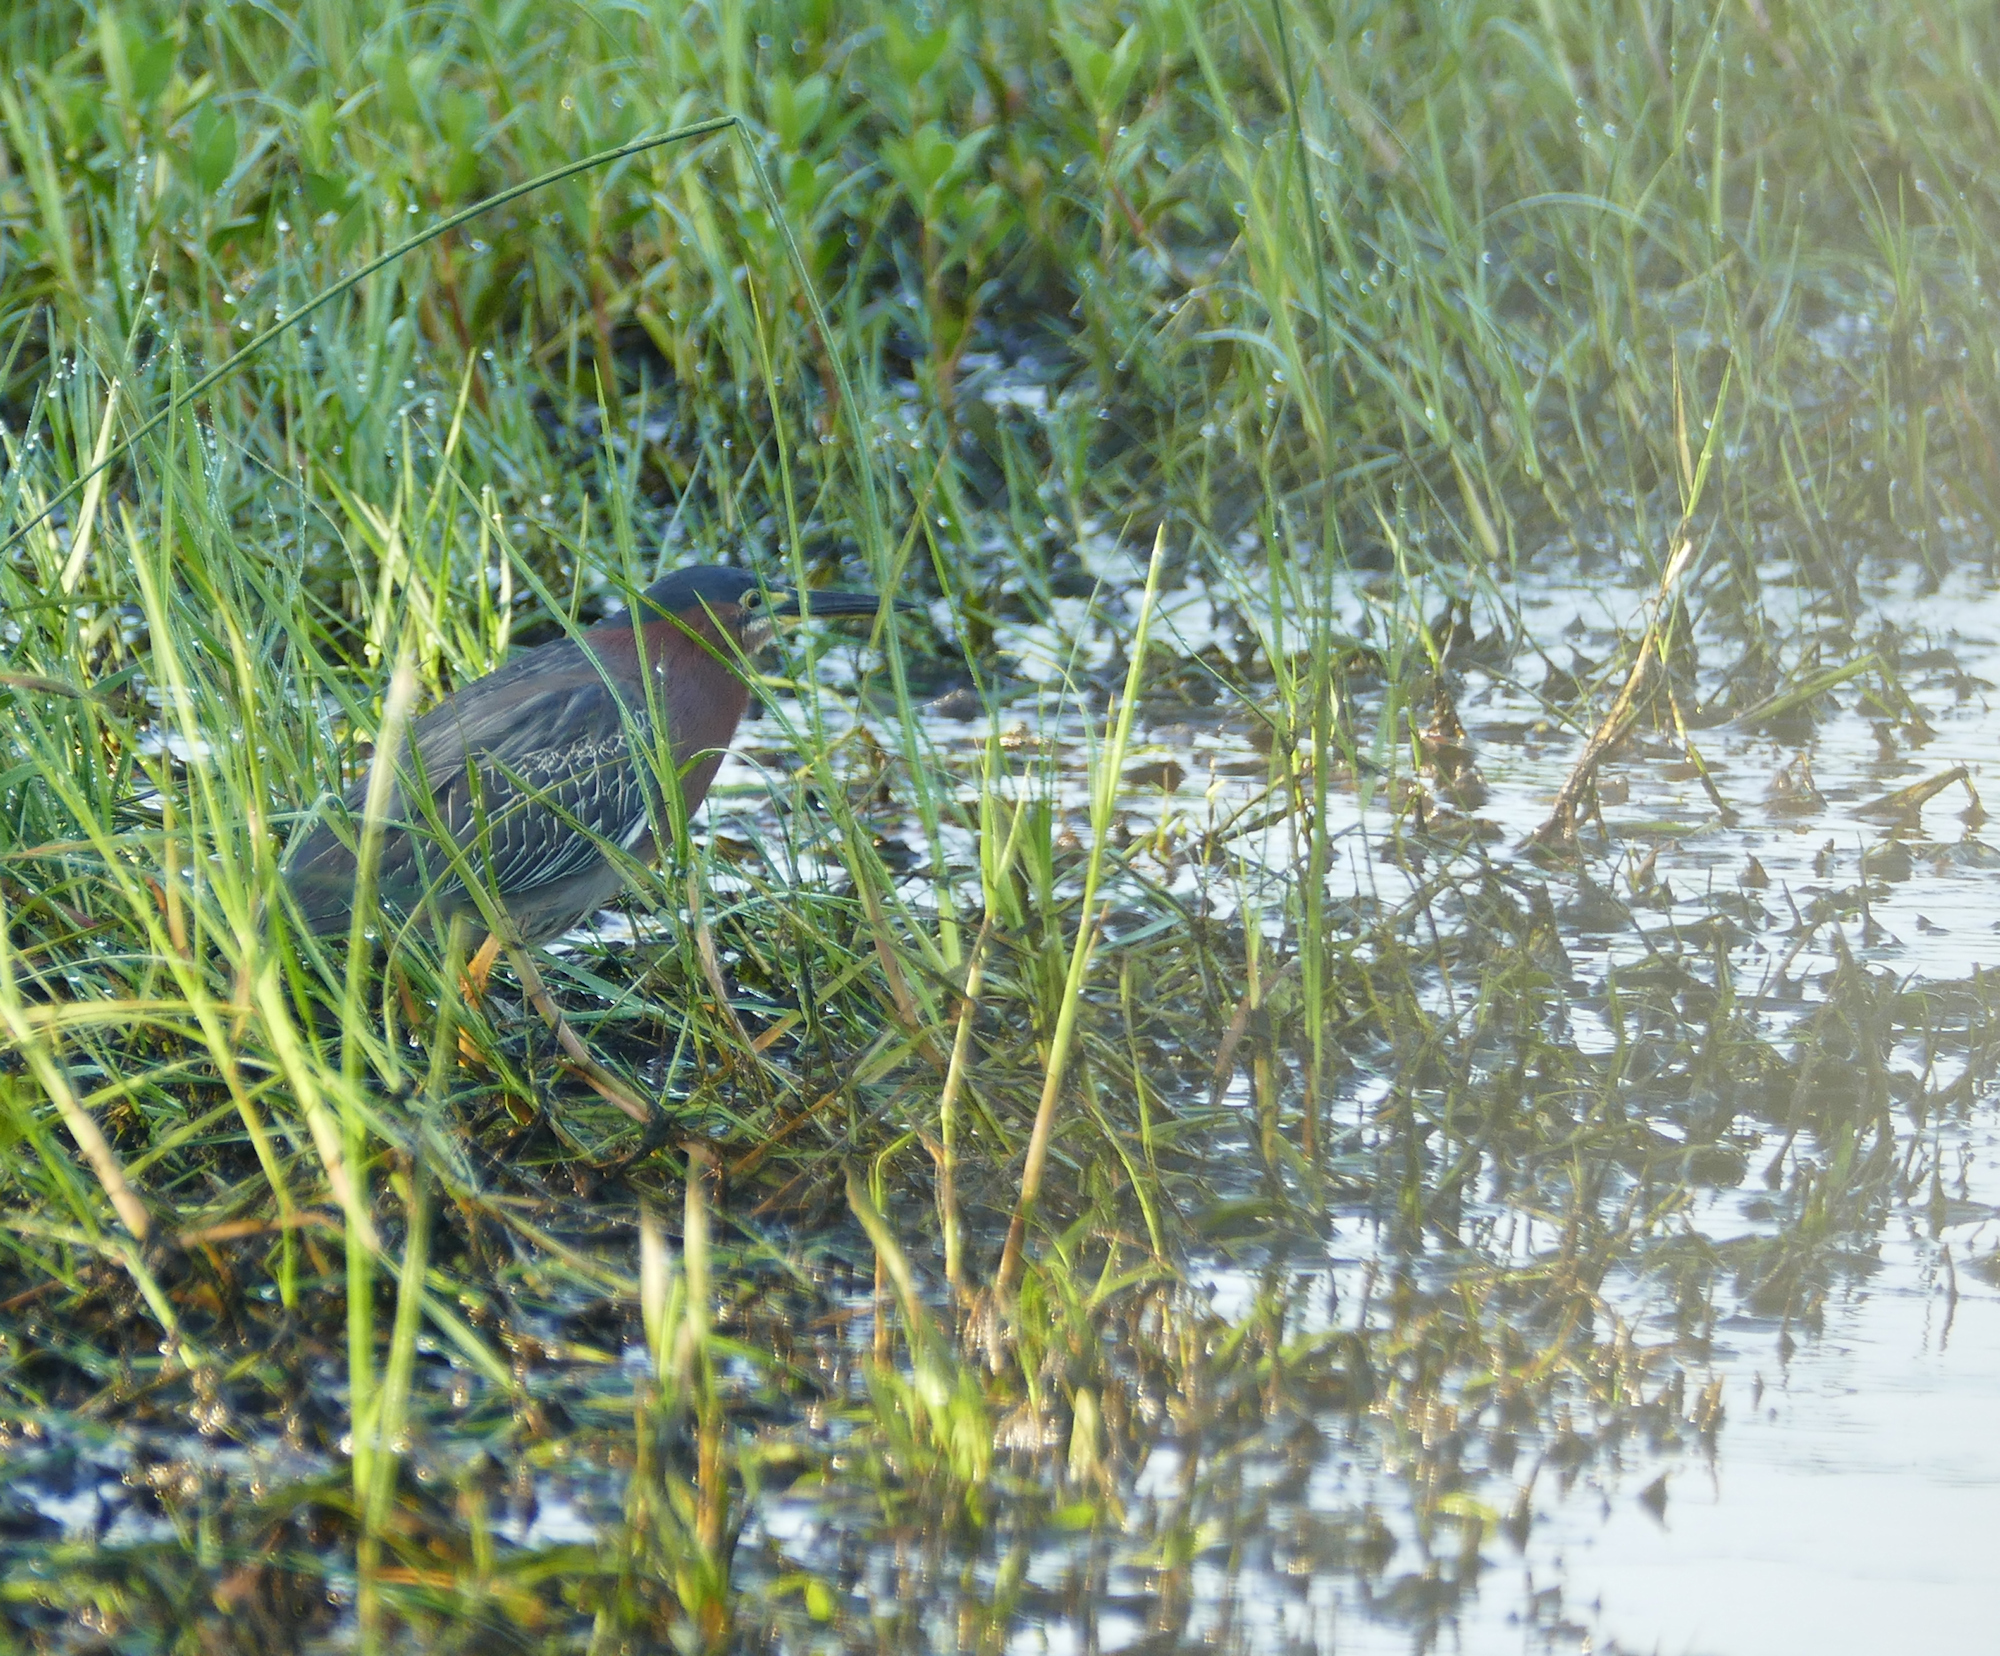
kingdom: Animalia
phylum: Chordata
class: Aves
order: Pelecaniformes
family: Ardeidae
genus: Butorides
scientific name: Butorides virescens
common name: Green heron
